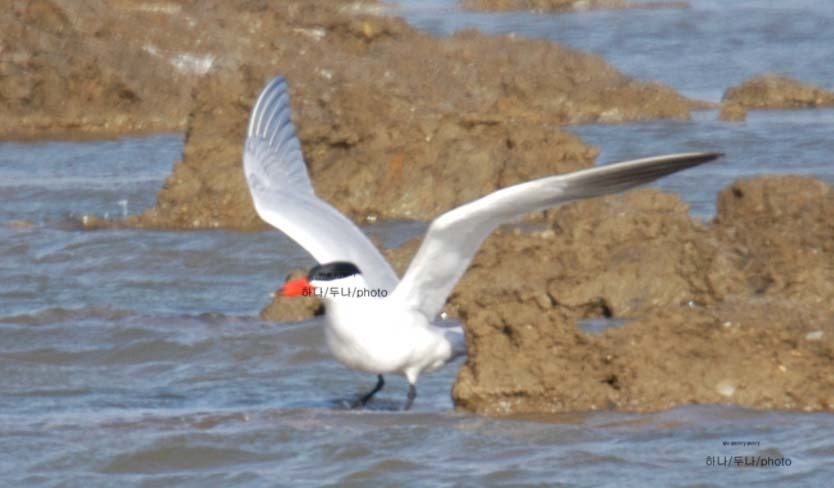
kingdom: Animalia
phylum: Chordata
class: Aves
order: Charadriiformes
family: Laridae
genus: Hydroprogne
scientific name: Hydroprogne caspia
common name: Caspian tern
